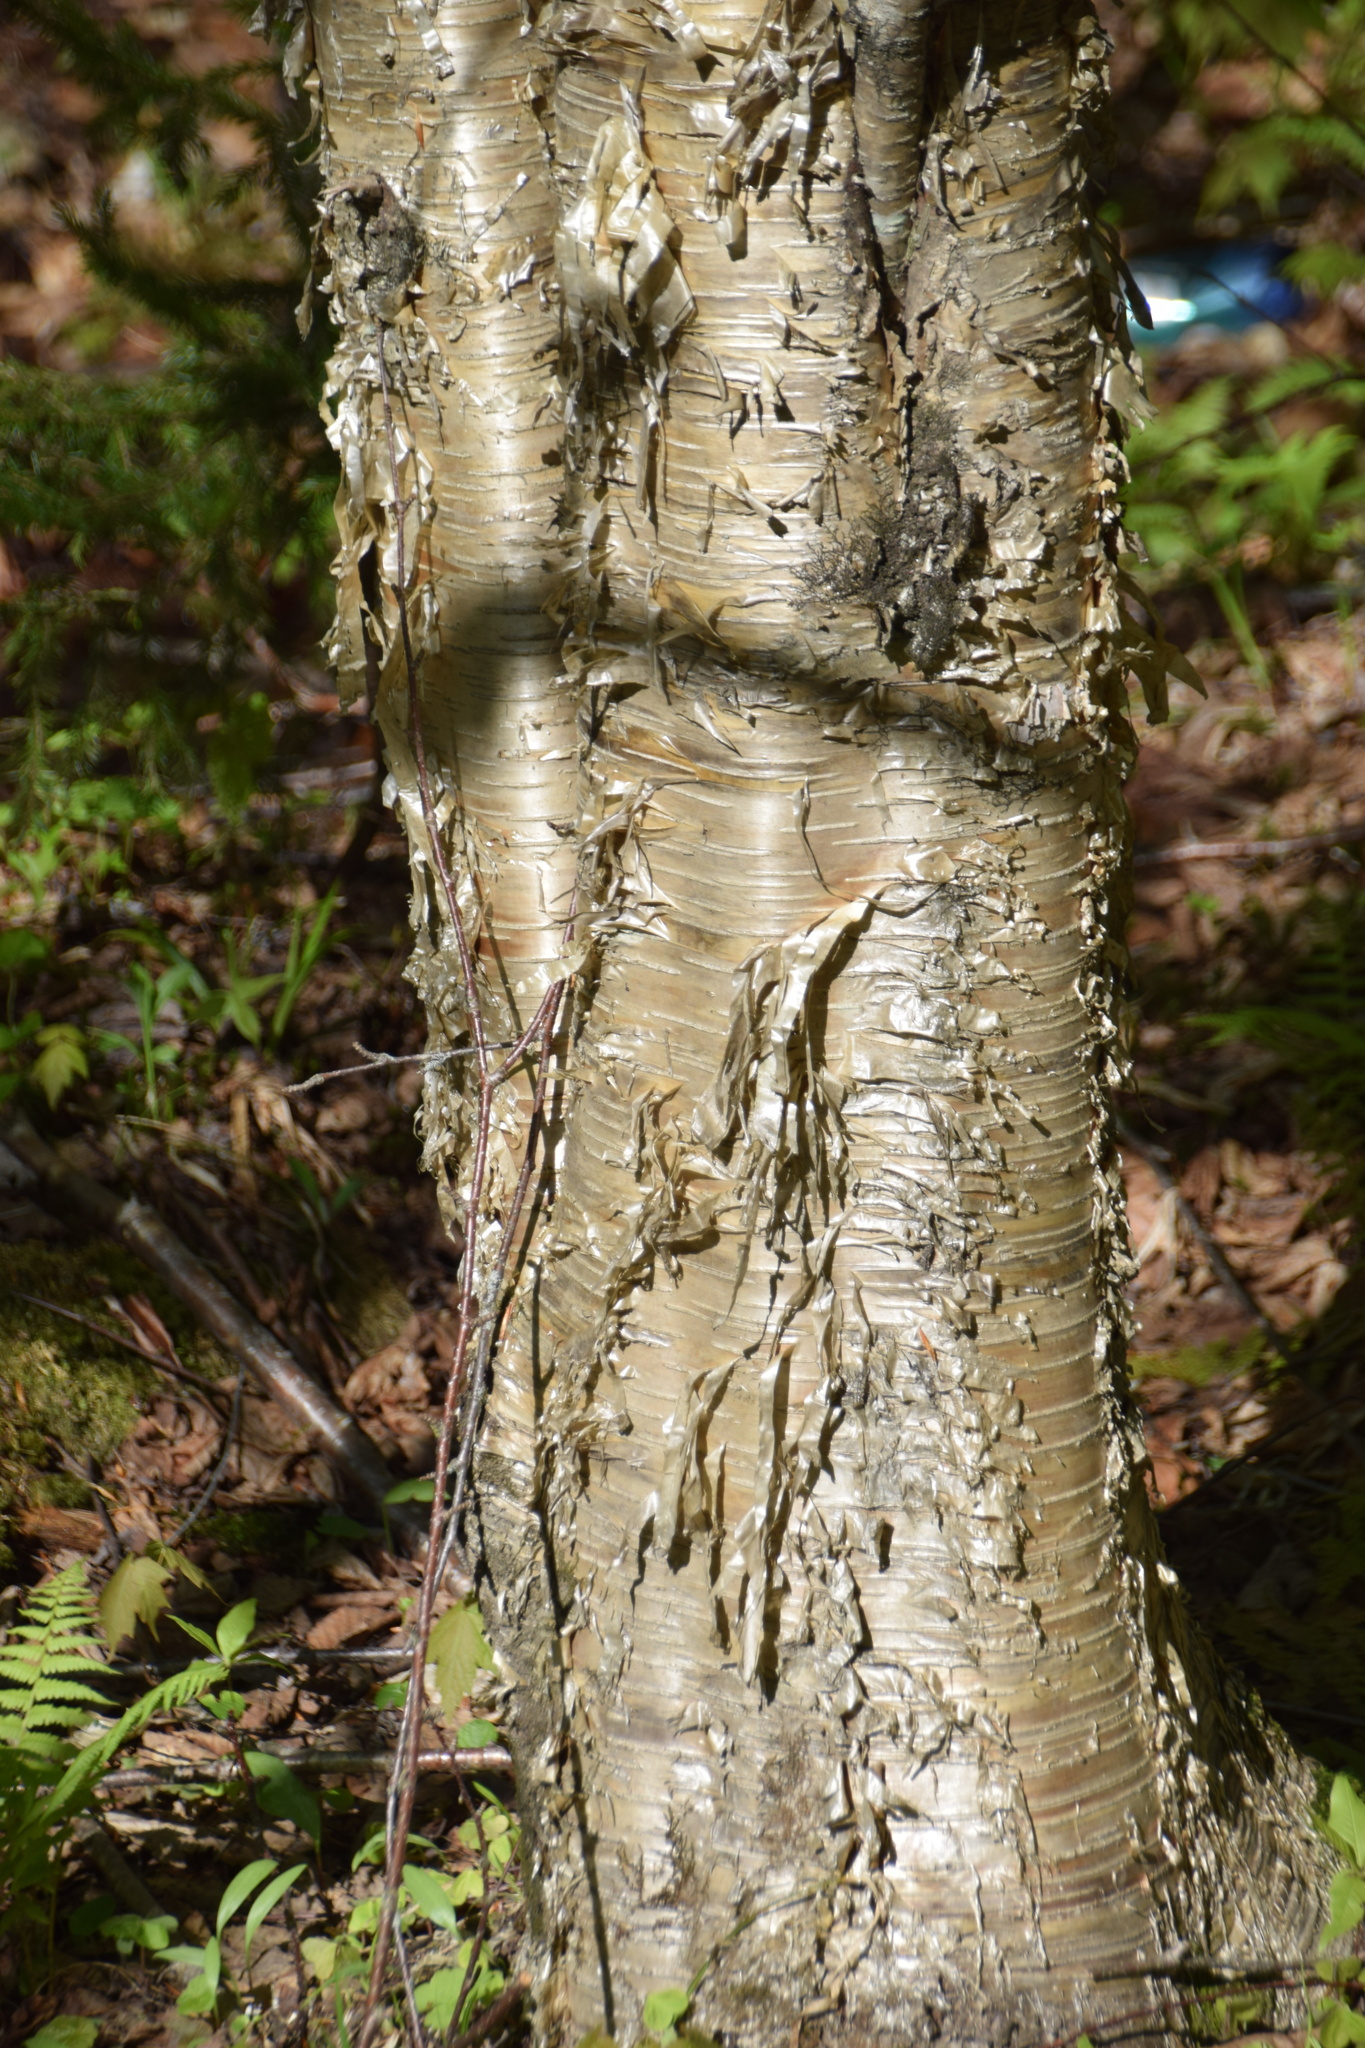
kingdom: Plantae
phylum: Tracheophyta
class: Magnoliopsida
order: Fagales
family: Betulaceae
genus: Betula
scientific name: Betula alleghaniensis
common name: Yellow birch
